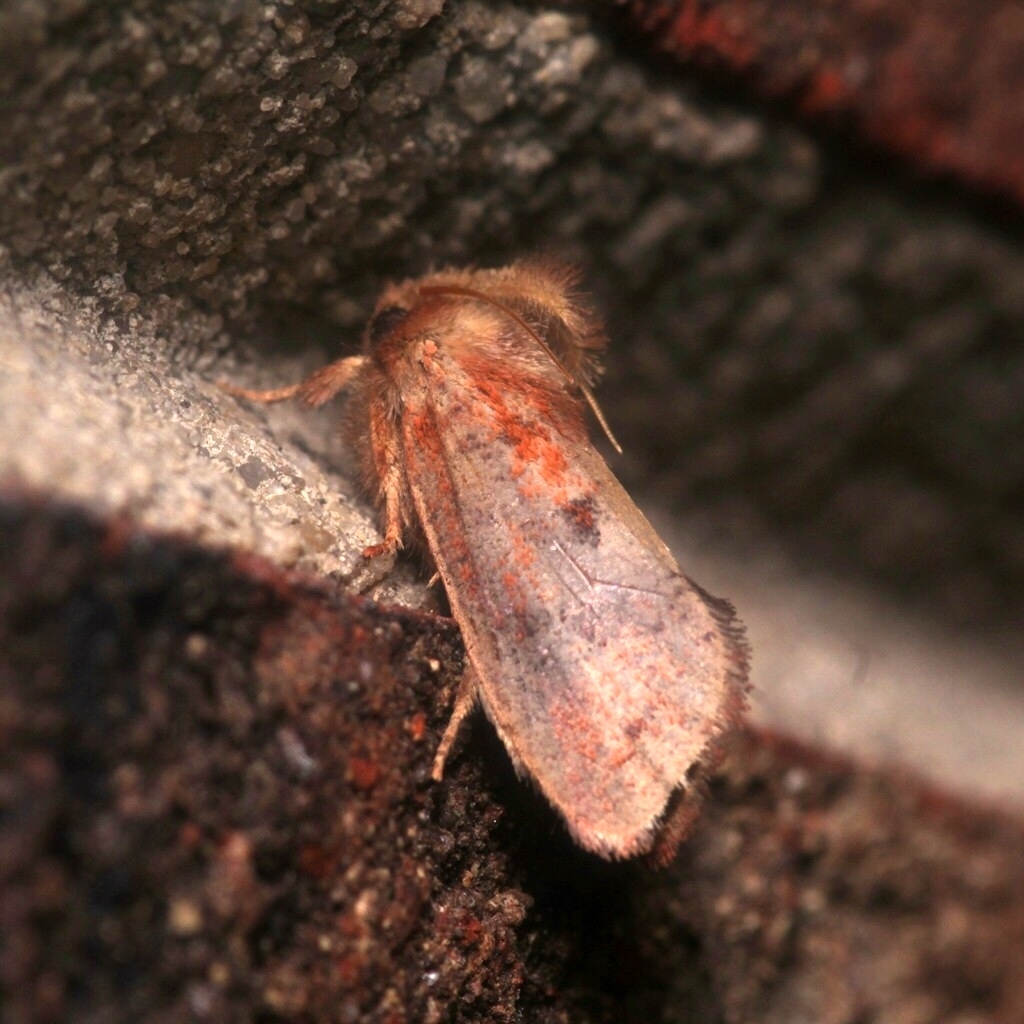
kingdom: Animalia
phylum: Arthropoda
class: Insecta
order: Lepidoptera
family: Tineidae
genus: Acrolophus
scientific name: Acrolophus plumifrontella
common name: Eastern grass tubeworm moth
